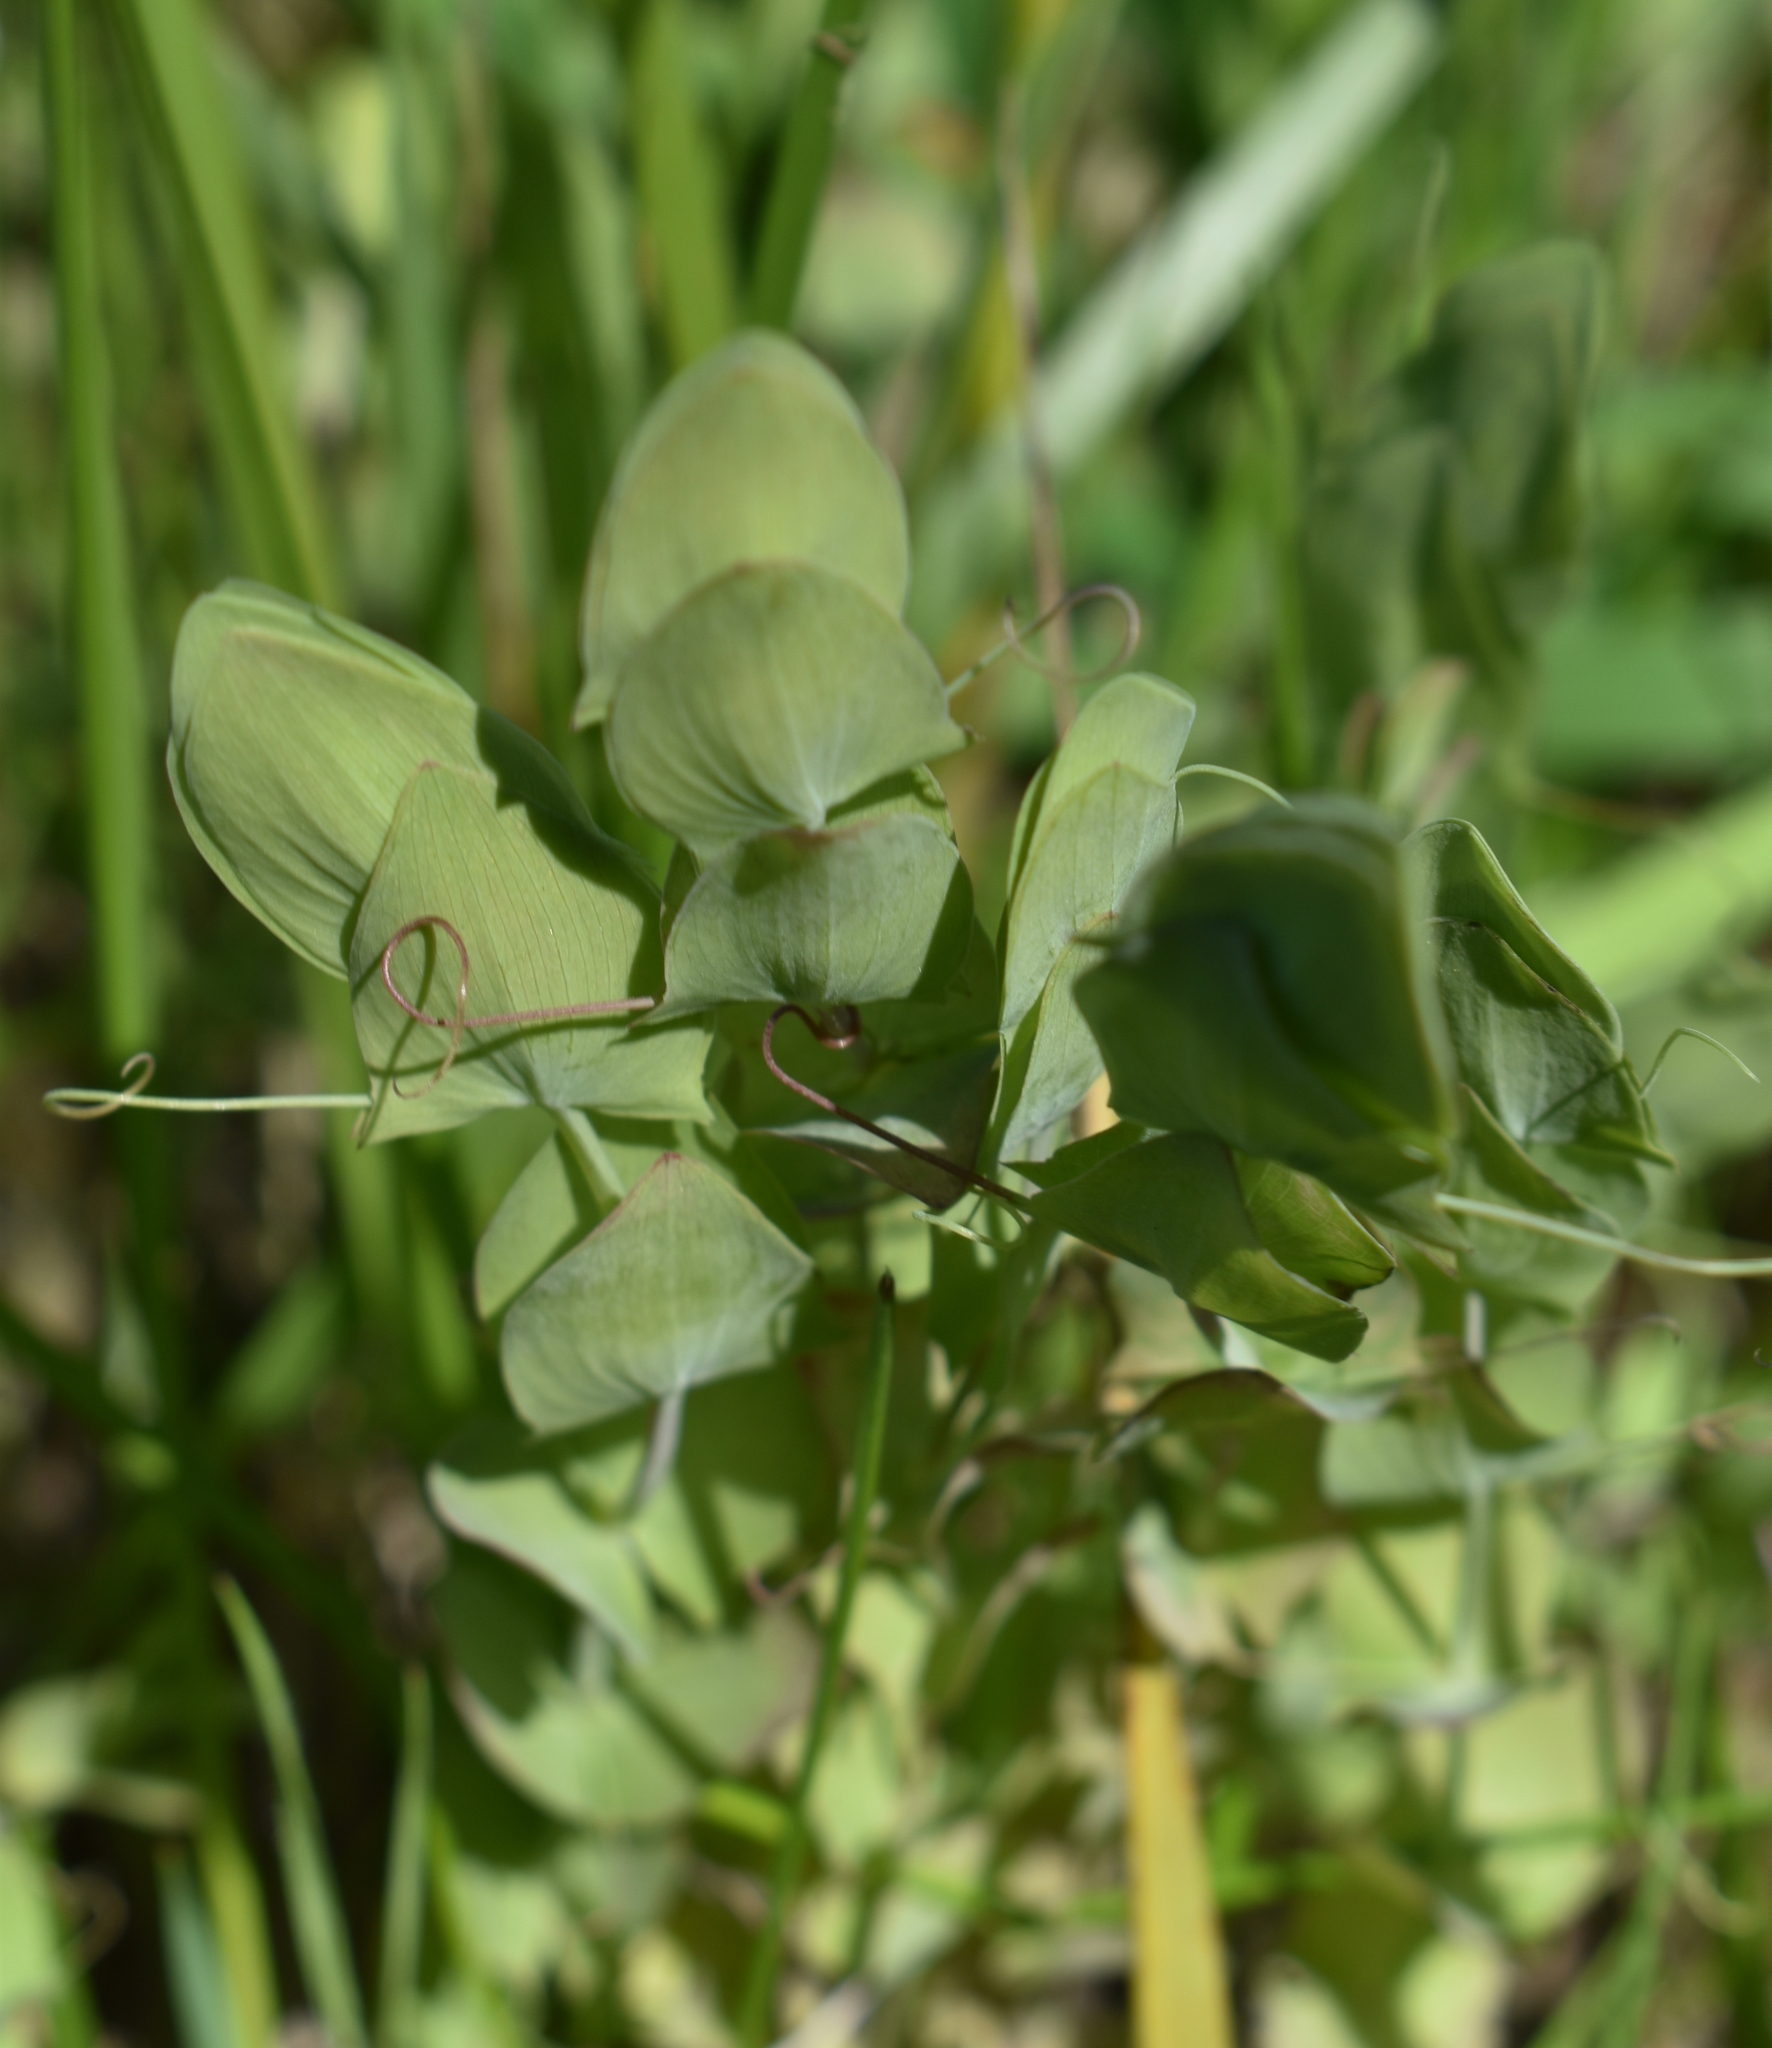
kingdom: Plantae
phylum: Tracheophyta
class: Magnoliopsida
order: Fabales
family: Fabaceae
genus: Lathyrus
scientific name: Lathyrus aphaca
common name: Yellow vetchling
